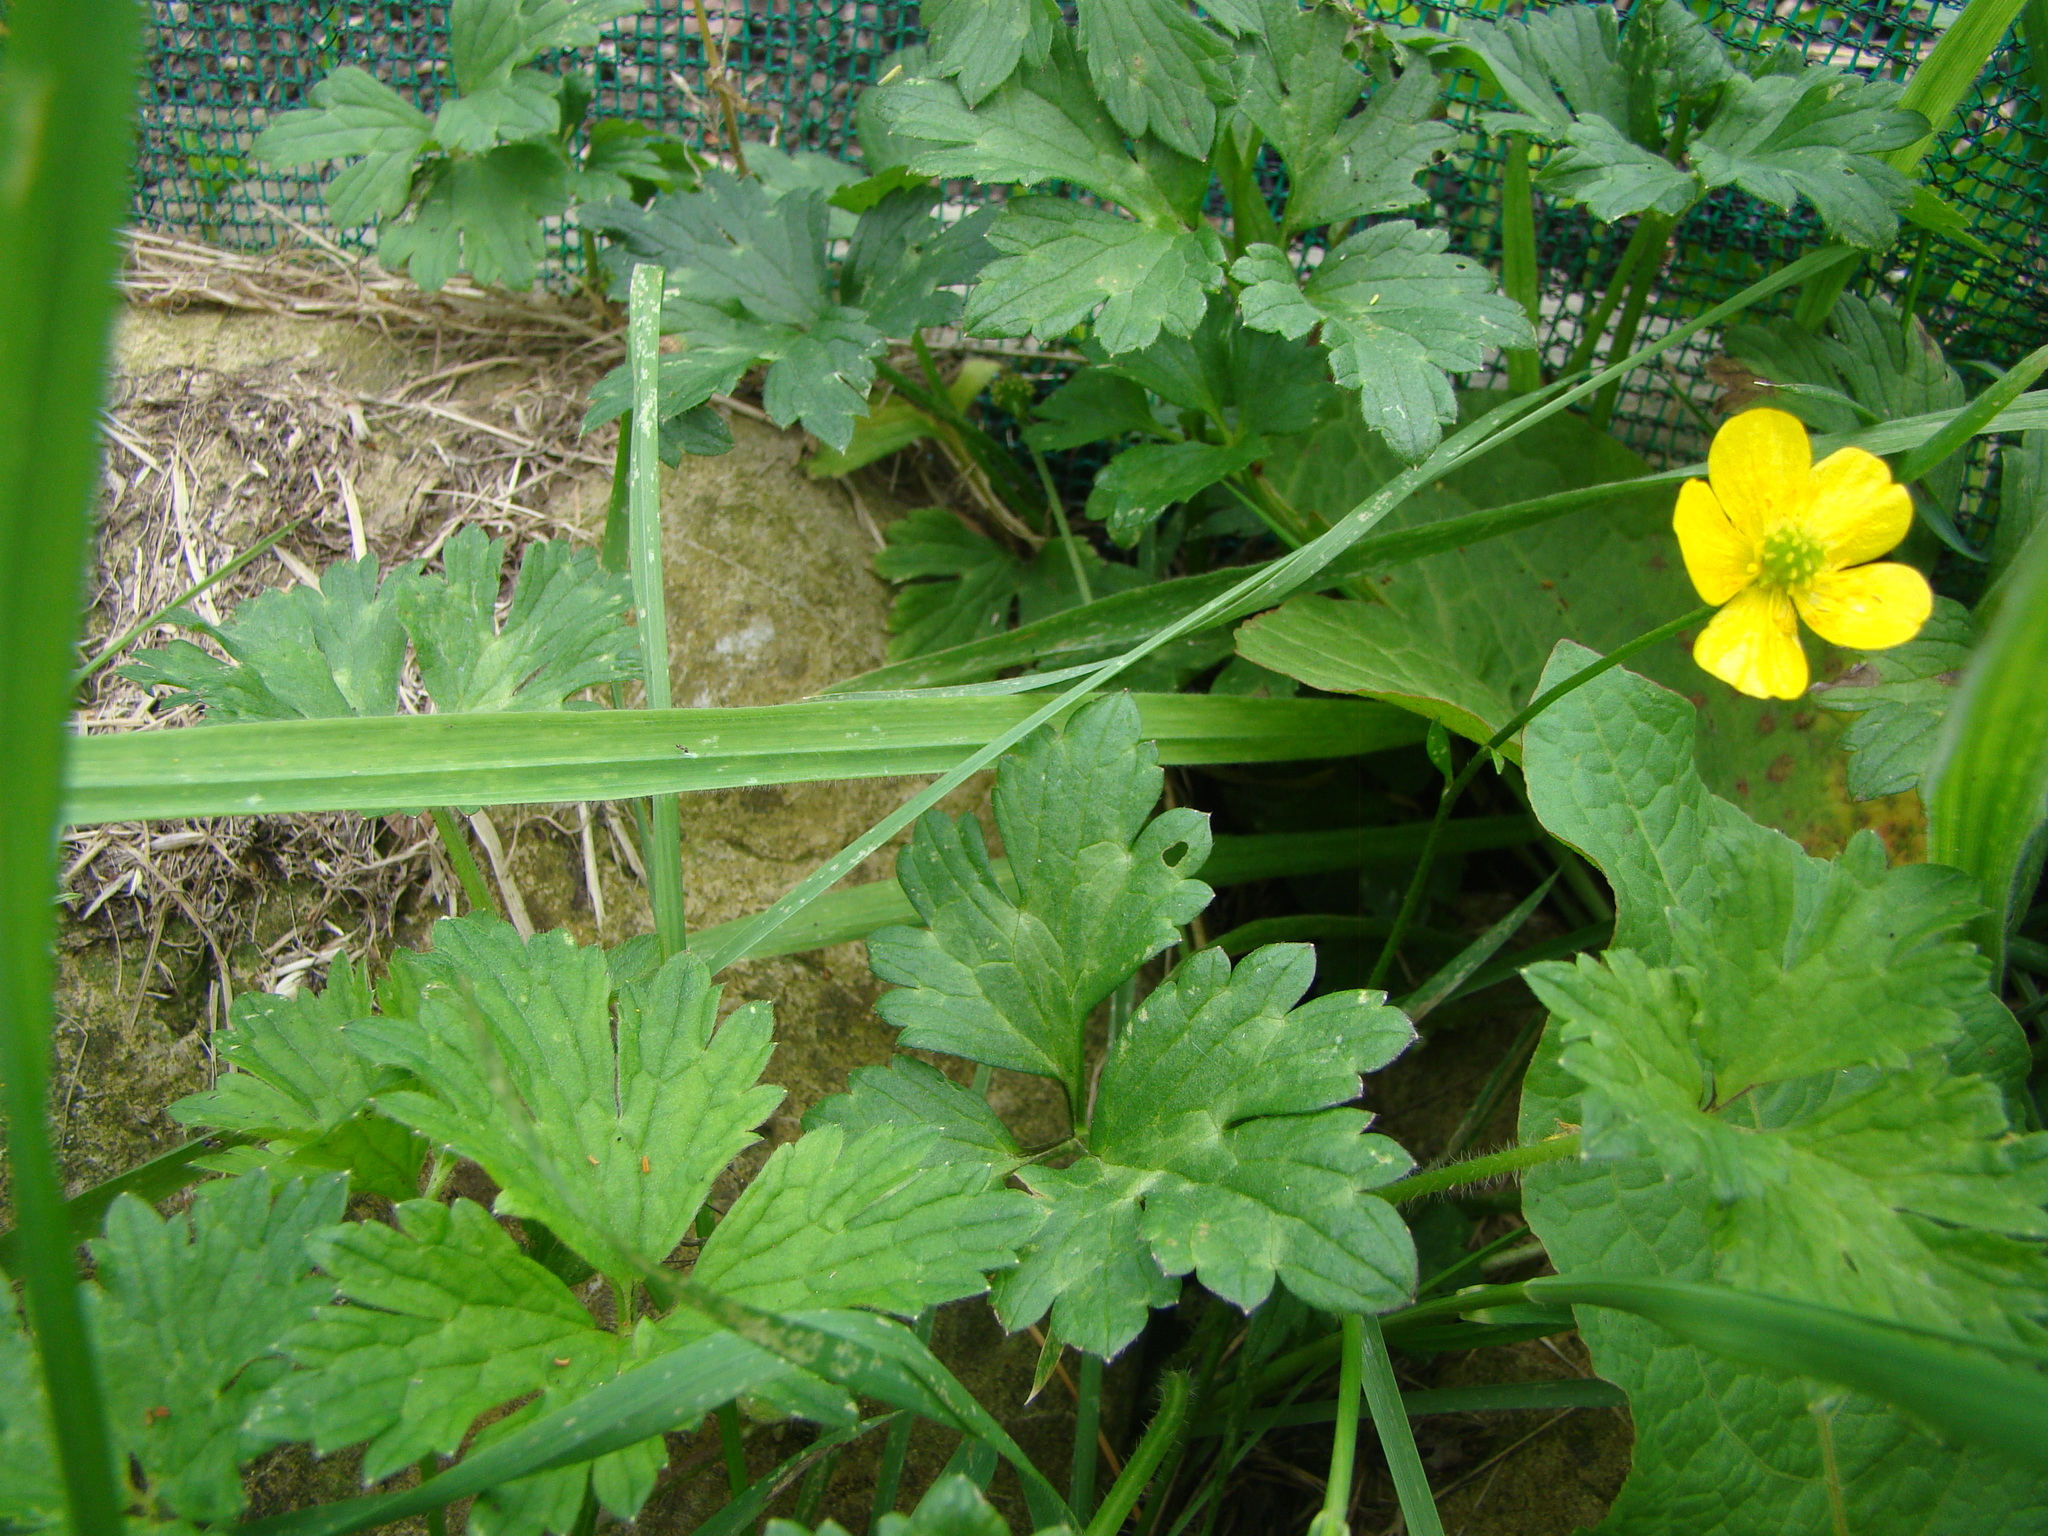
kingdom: Plantae
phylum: Tracheophyta
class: Magnoliopsida
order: Ranunculales
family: Ranunculaceae
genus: Ranunculus
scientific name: Ranunculus repens
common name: Creeping buttercup
